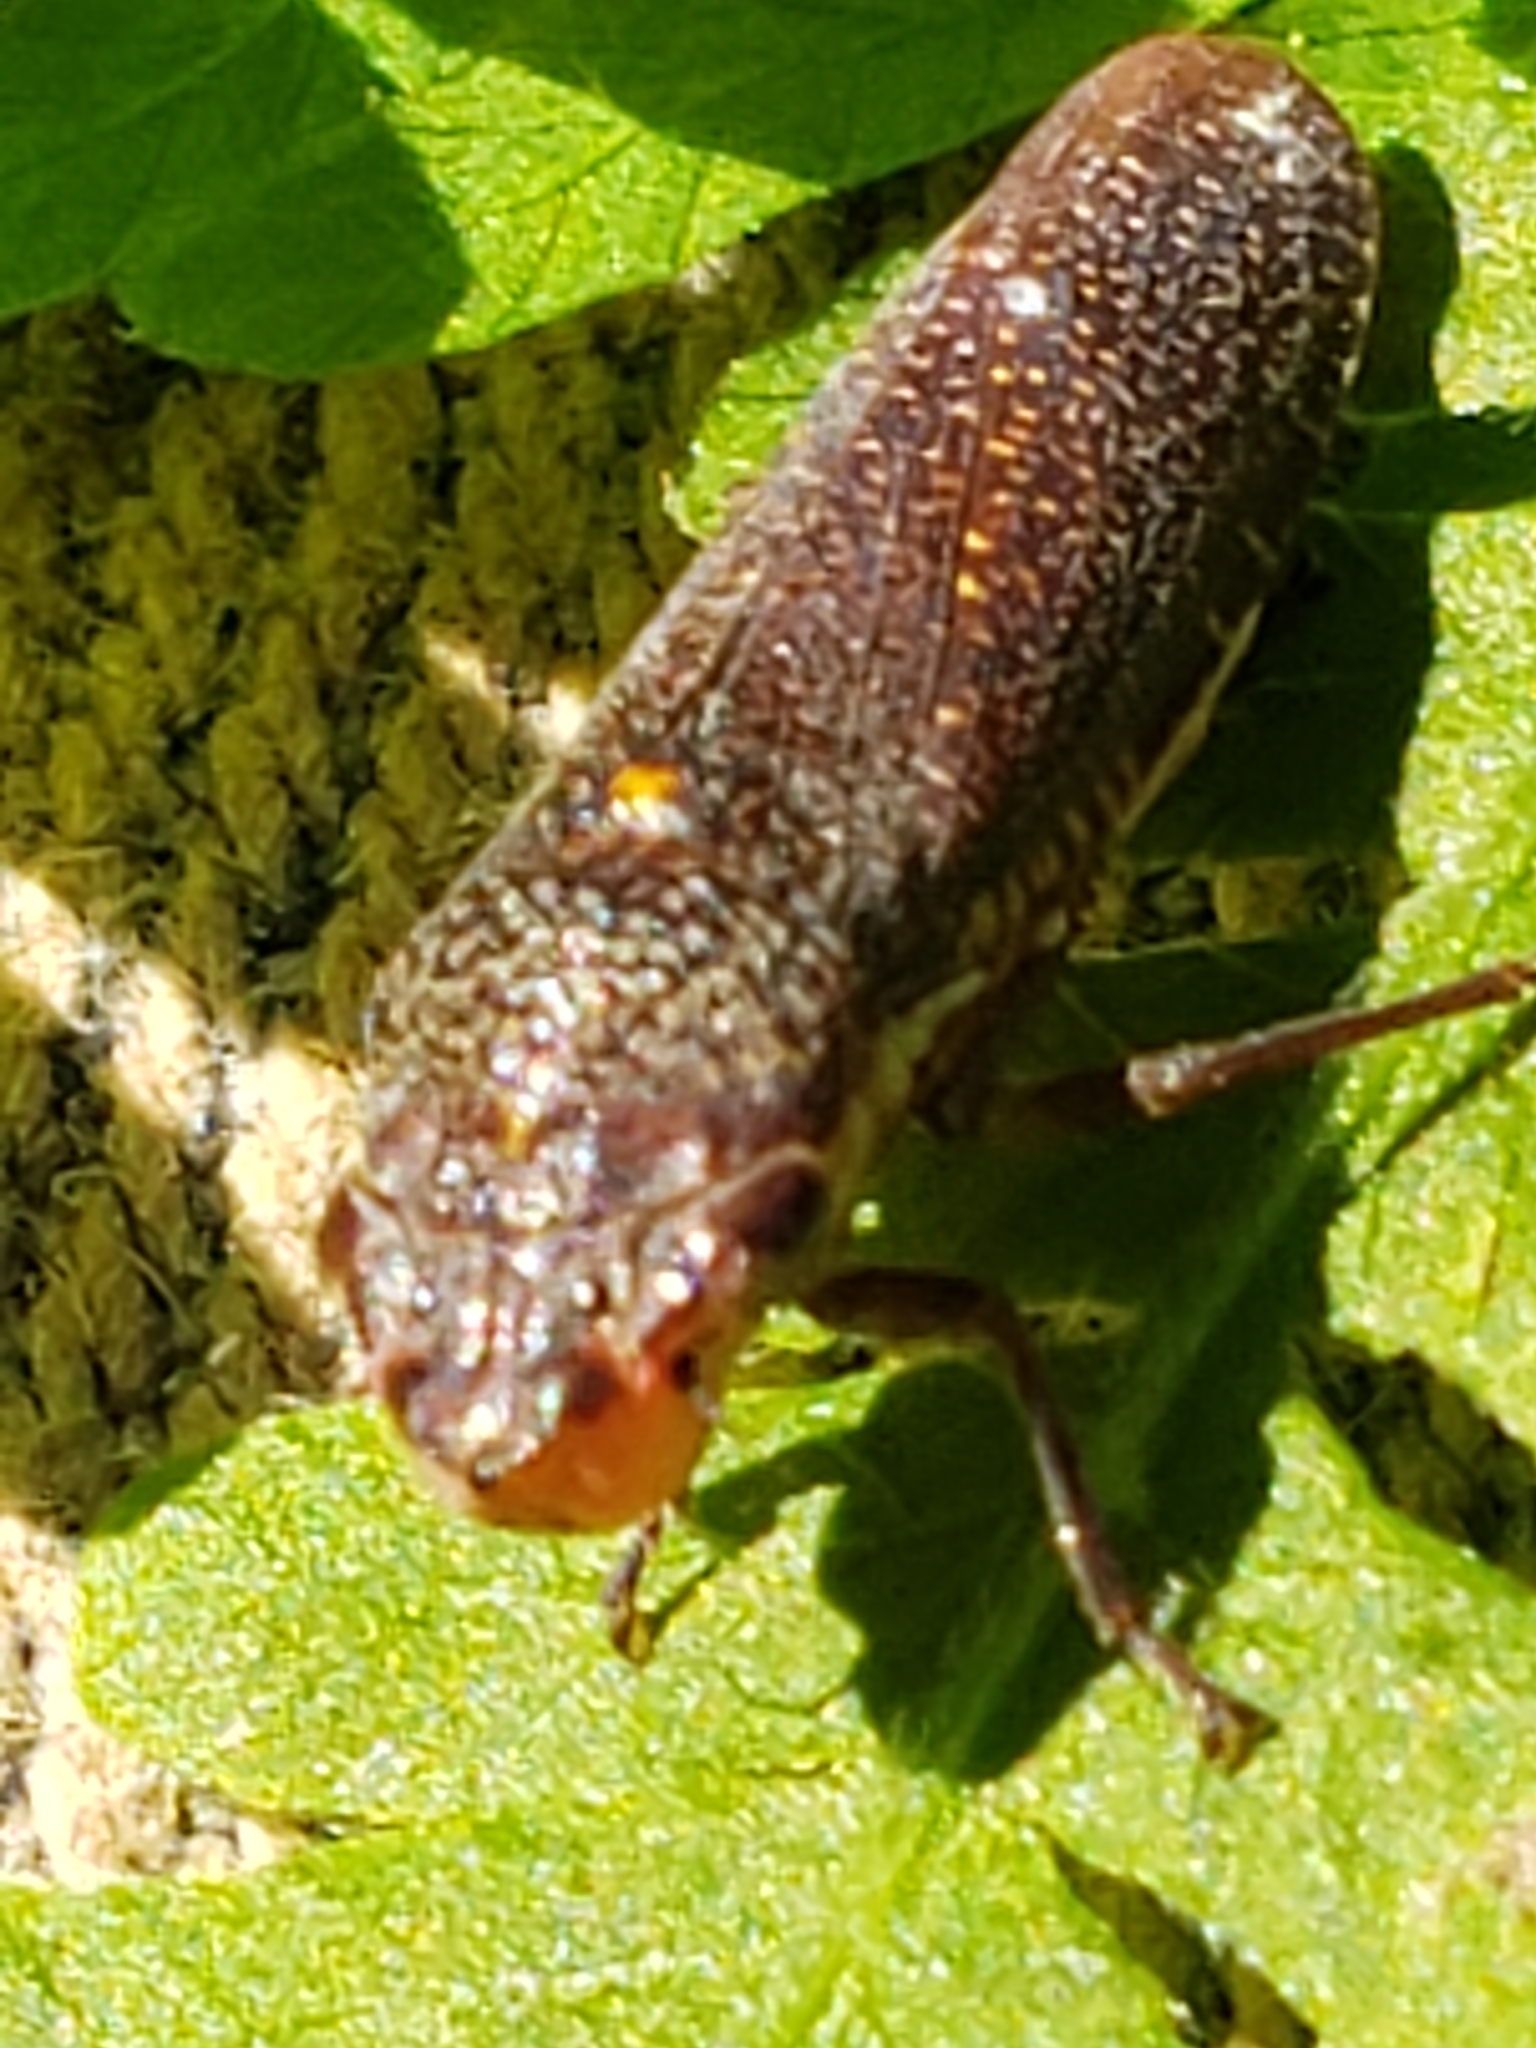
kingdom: Animalia
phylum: Arthropoda
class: Insecta
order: Hemiptera
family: Cicadellidae
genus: Paraulacizes
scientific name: Paraulacizes irrorata
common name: Speckled sharpshooter
